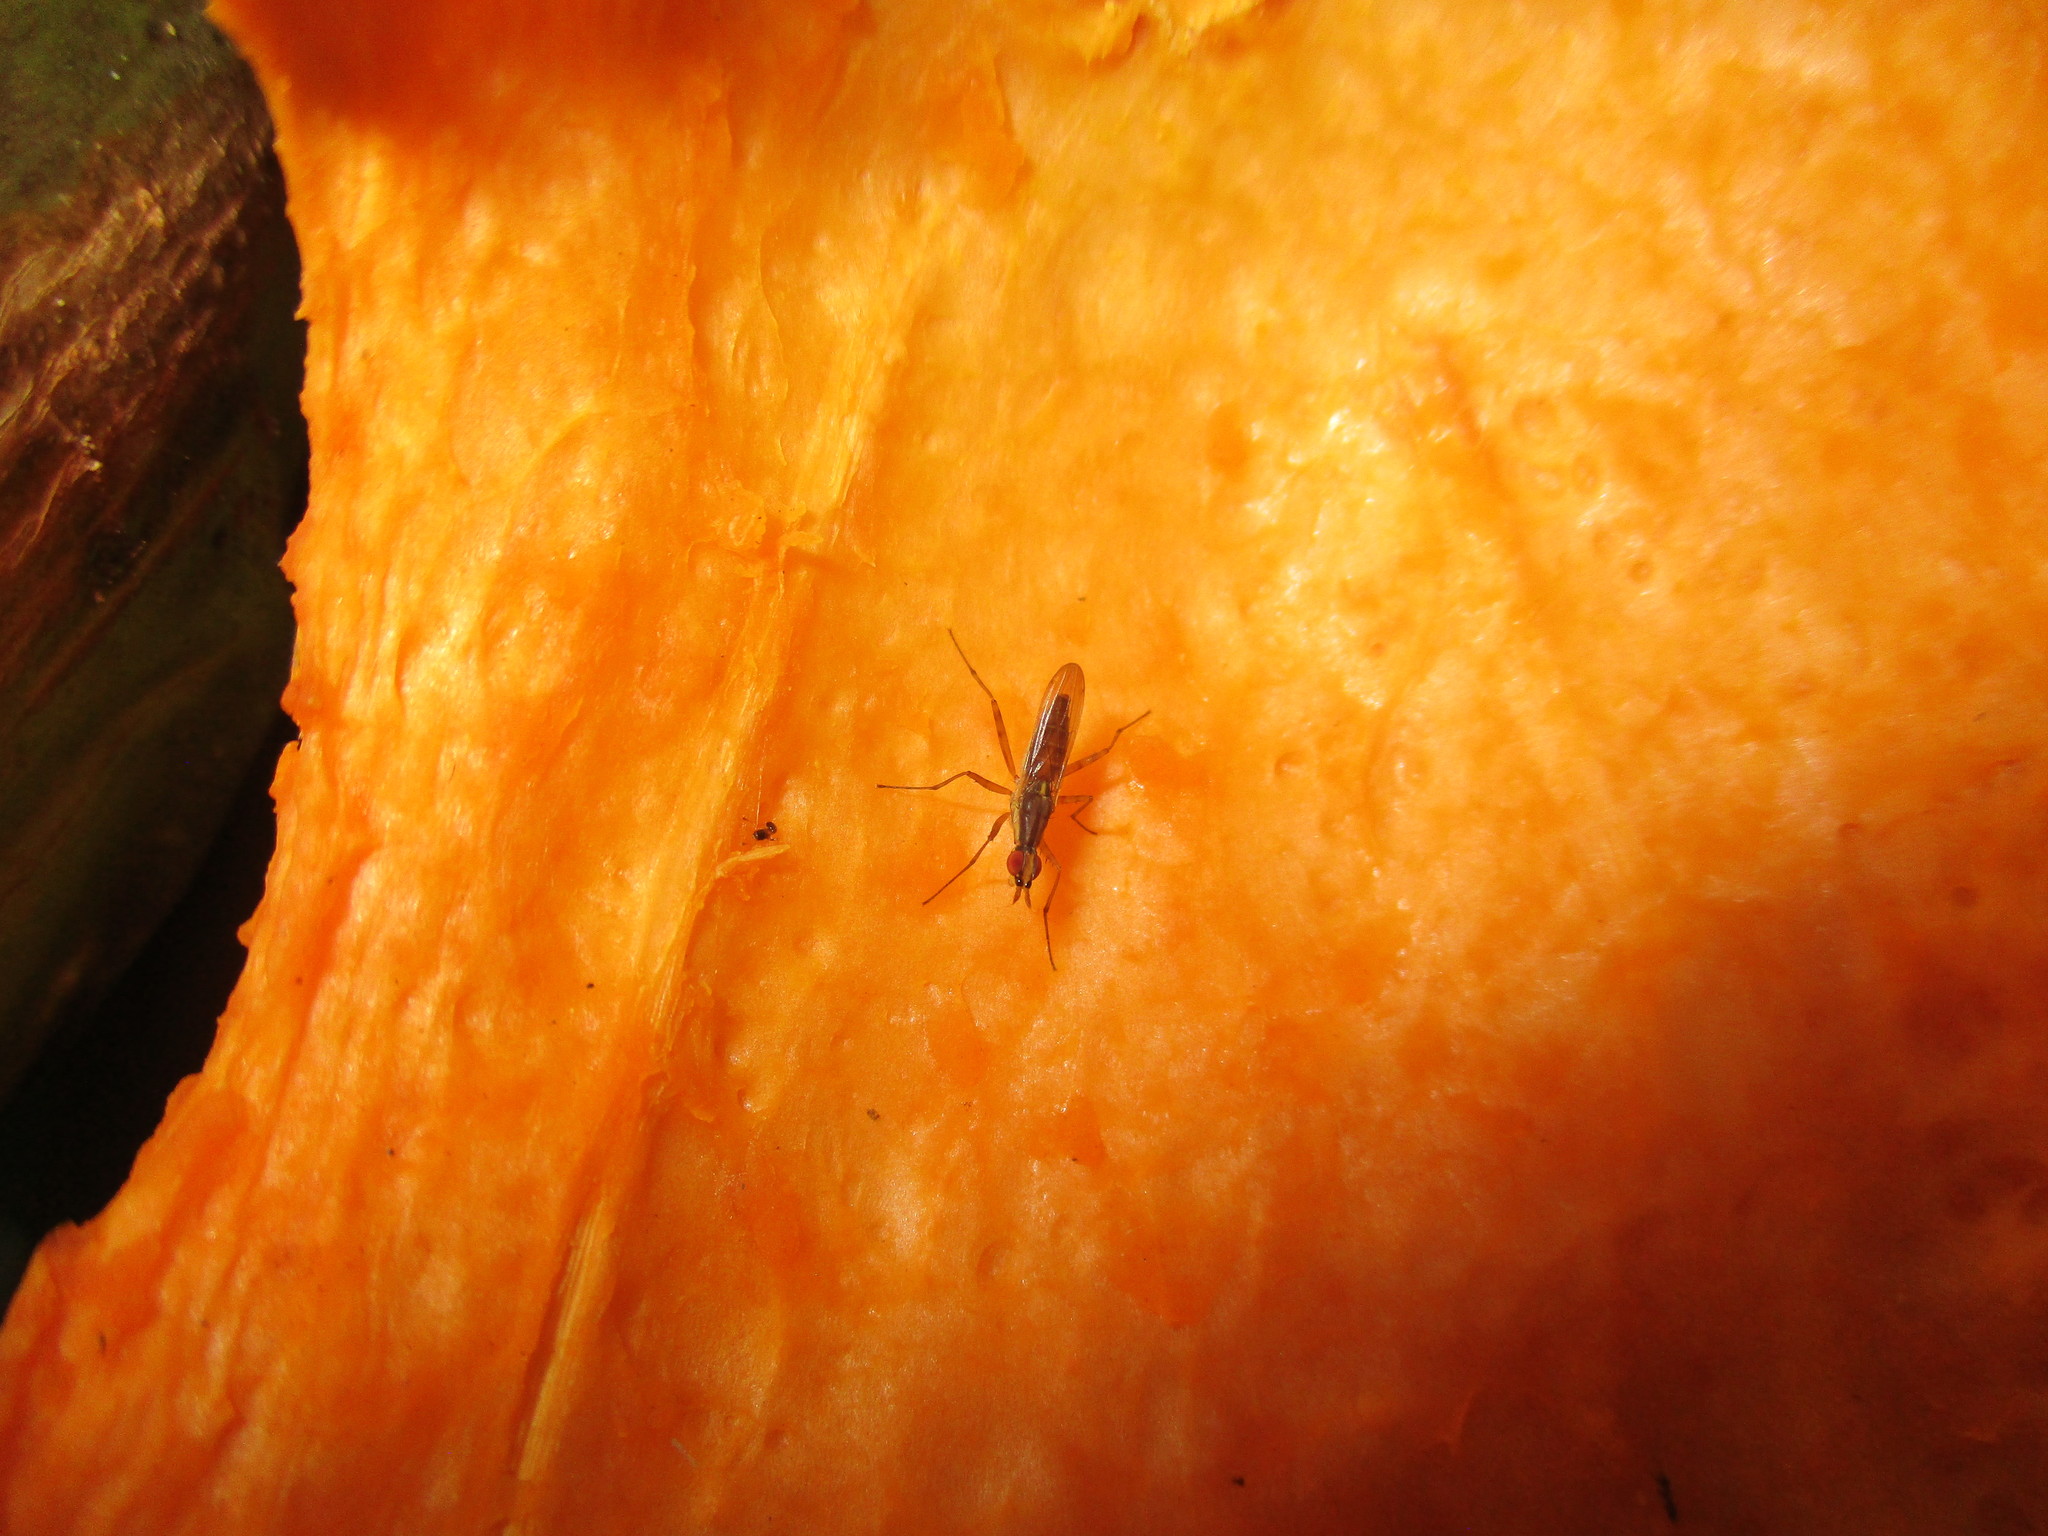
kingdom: Animalia
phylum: Arthropoda
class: Insecta
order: Diptera
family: Neriidae
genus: Glyphidops
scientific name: Glyphidops flavifrons
